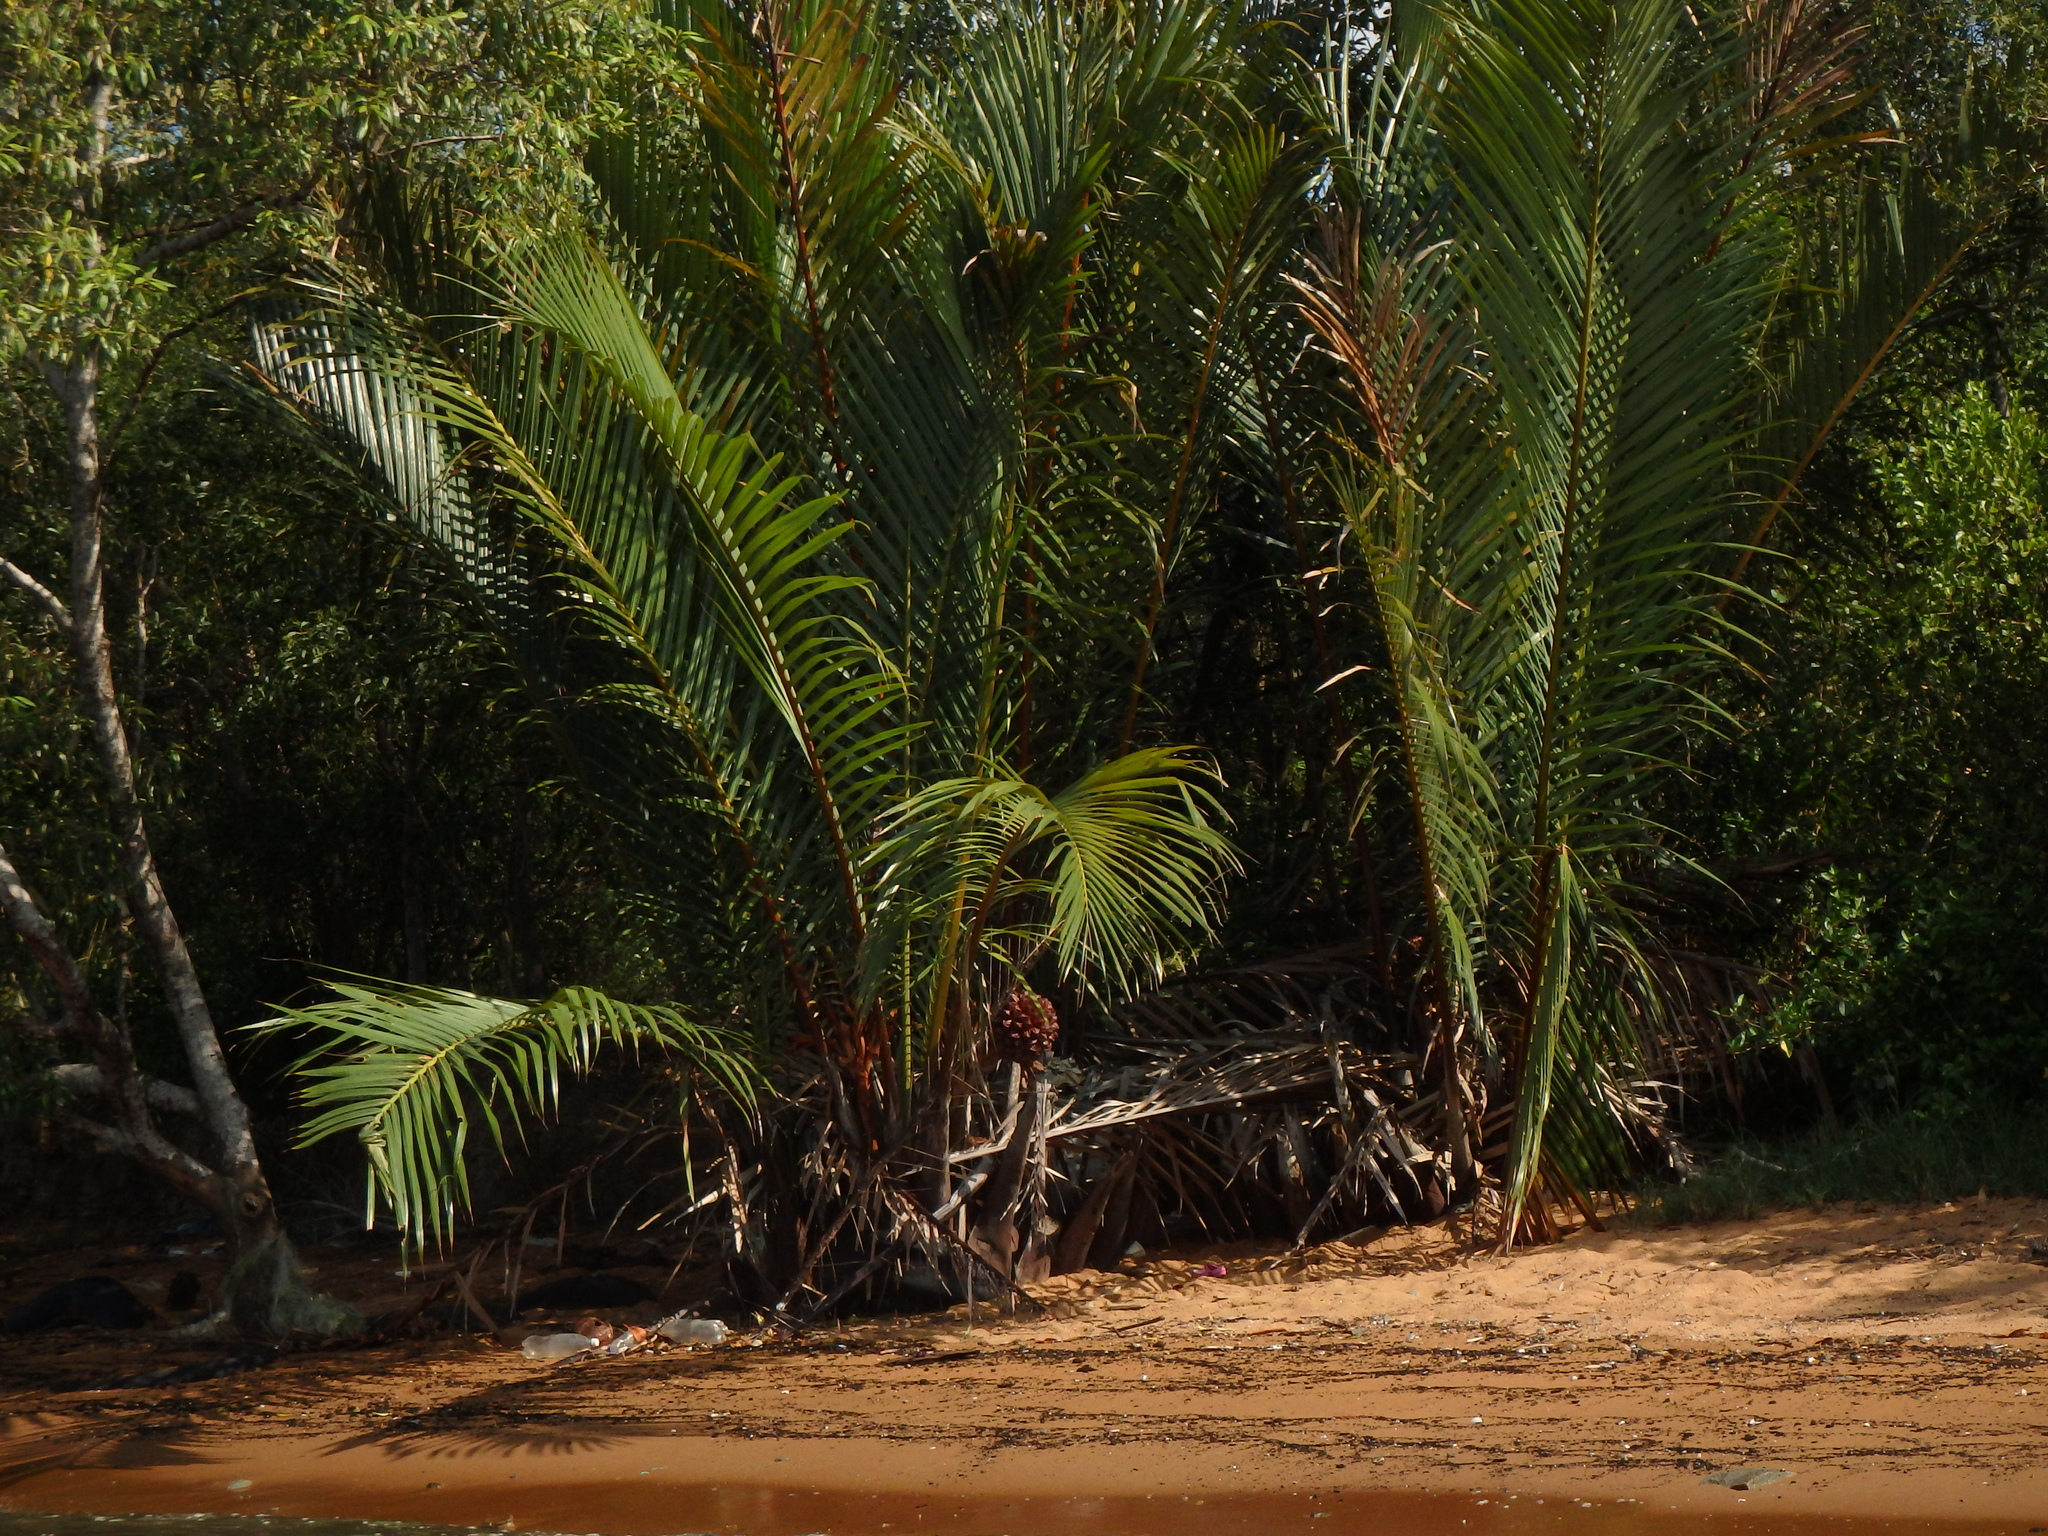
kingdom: Plantae
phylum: Tracheophyta
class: Liliopsida
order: Arecales
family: Arecaceae
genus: Nypa
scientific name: Nypa fruticans
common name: Mangrove palm
